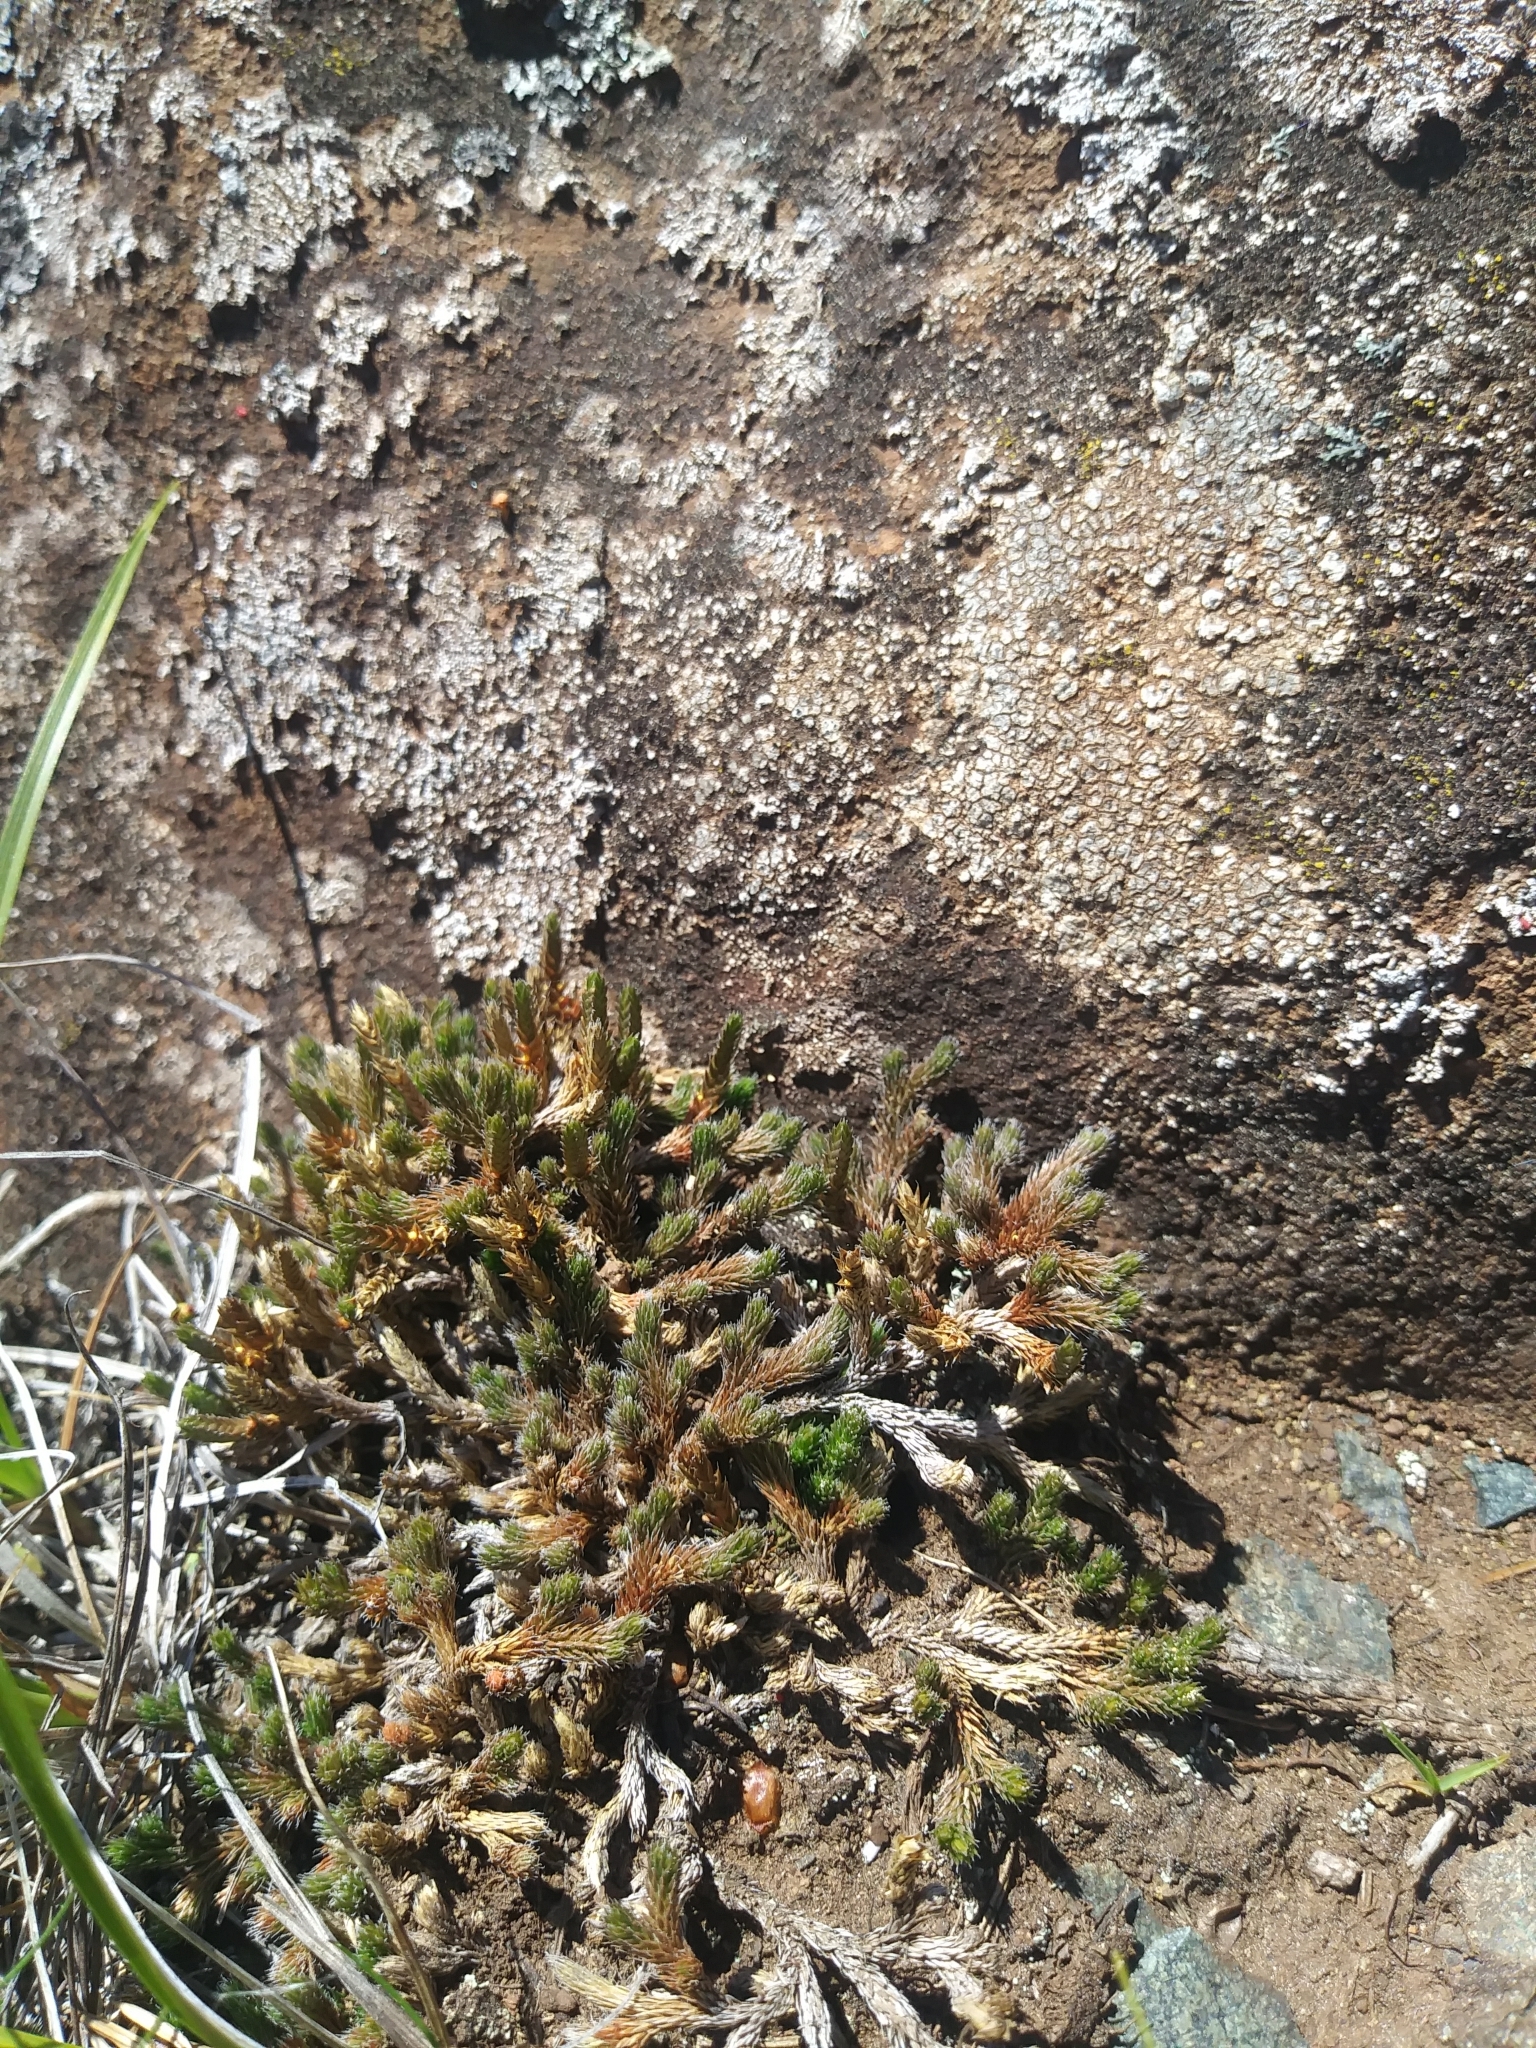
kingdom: Plantae
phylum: Tracheophyta
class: Lycopodiopsida
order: Selaginellales
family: Selaginellaceae
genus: Selaginella
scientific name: Selaginella rupestris
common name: Dwarf spikemoss
